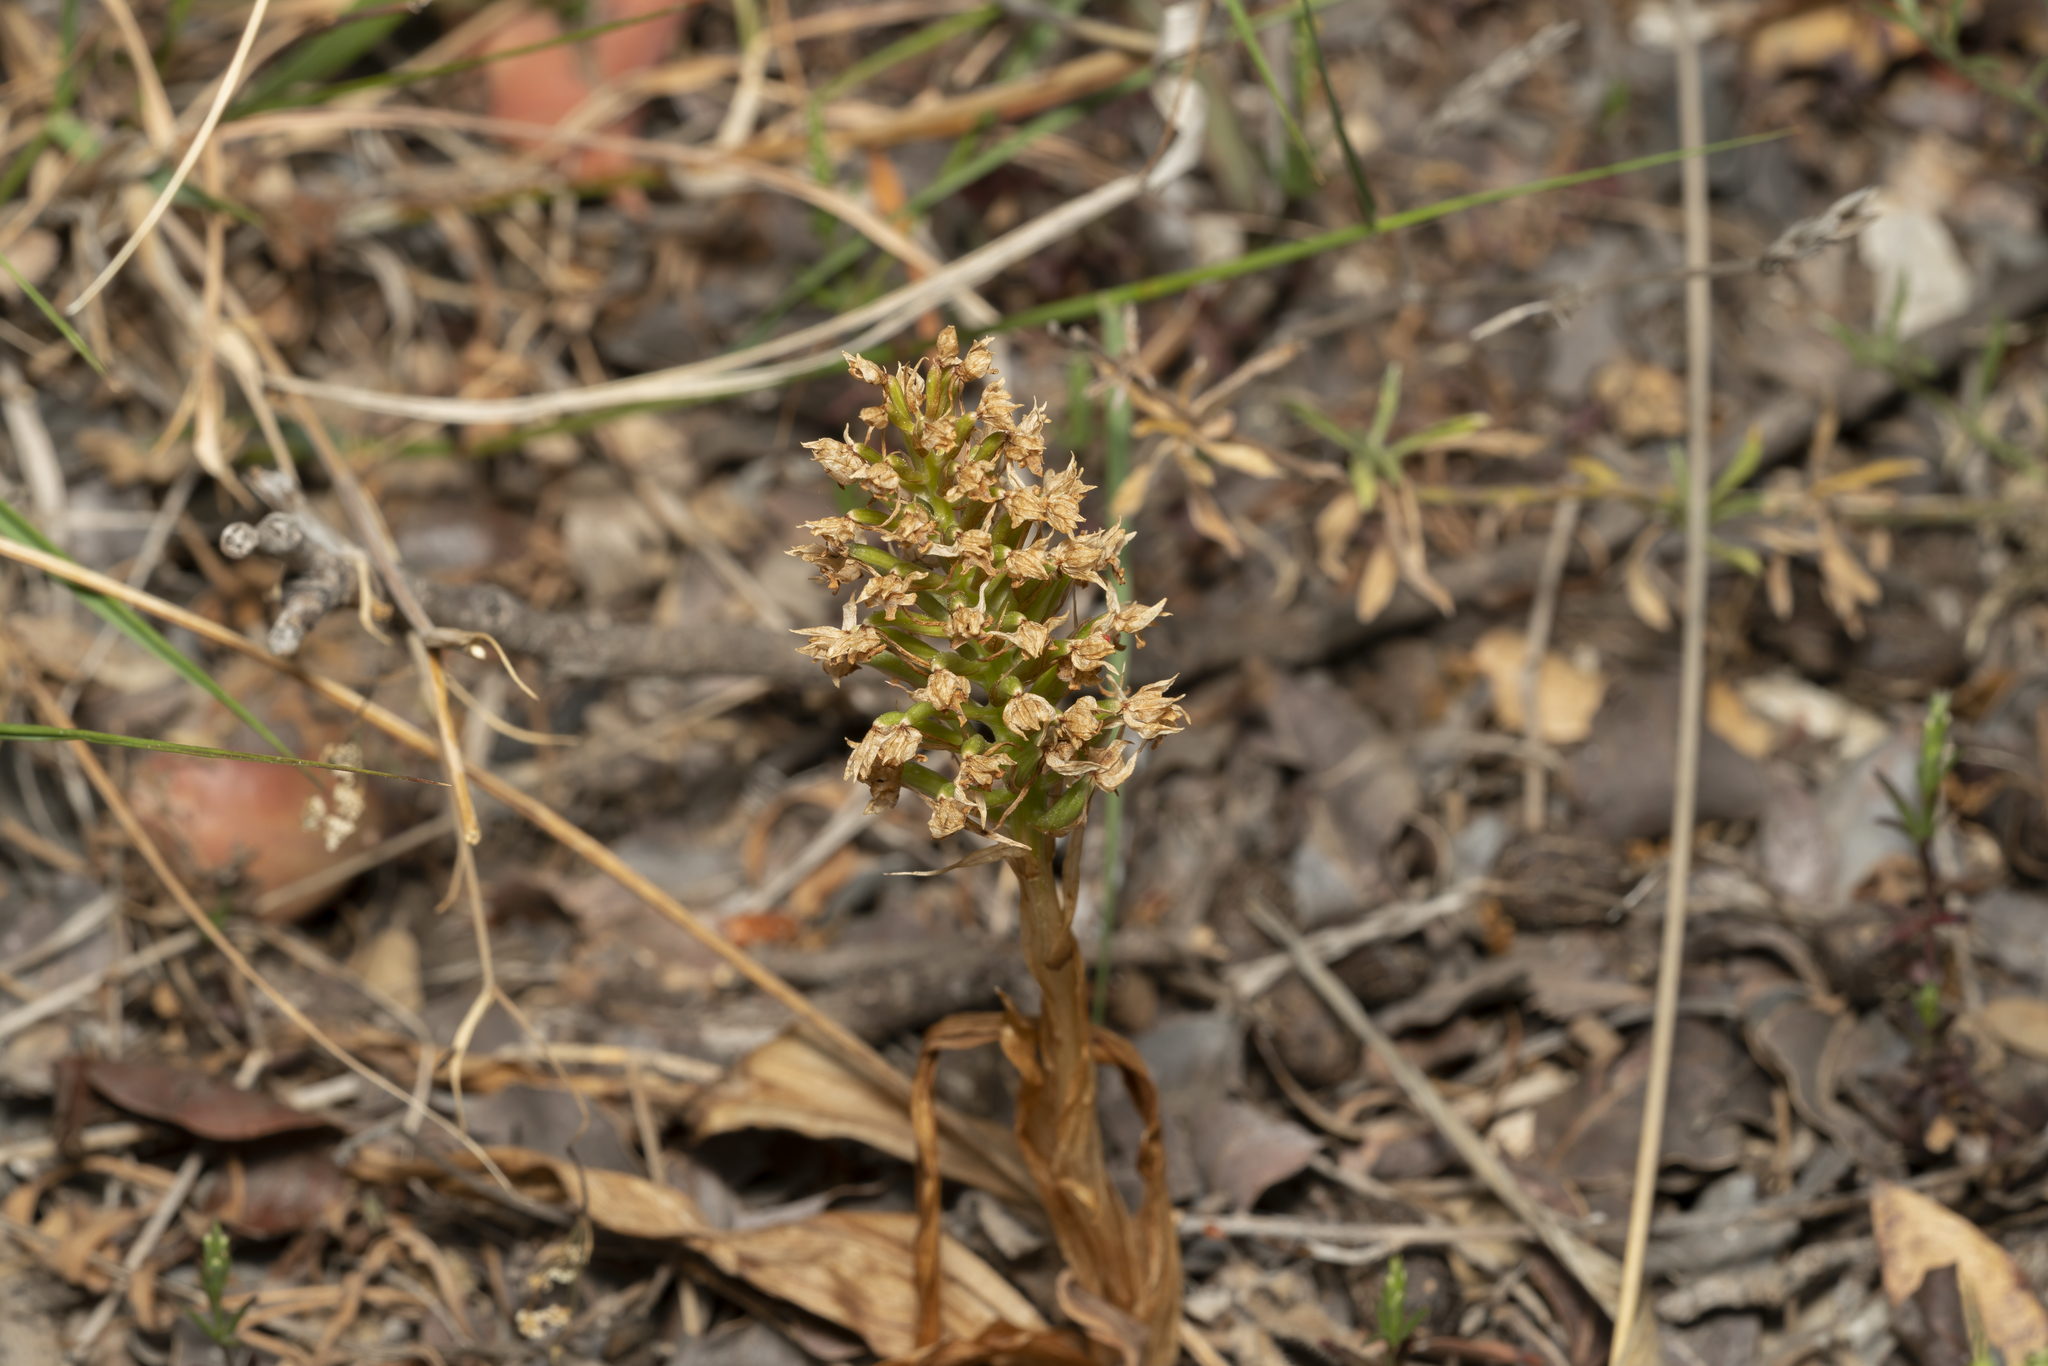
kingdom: Plantae
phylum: Tracheophyta
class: Liliopsida
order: Asparagales
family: Orchidaceae
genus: Anacamptis
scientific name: Anacamptis pyramidalis
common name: Pyramidal orchid
